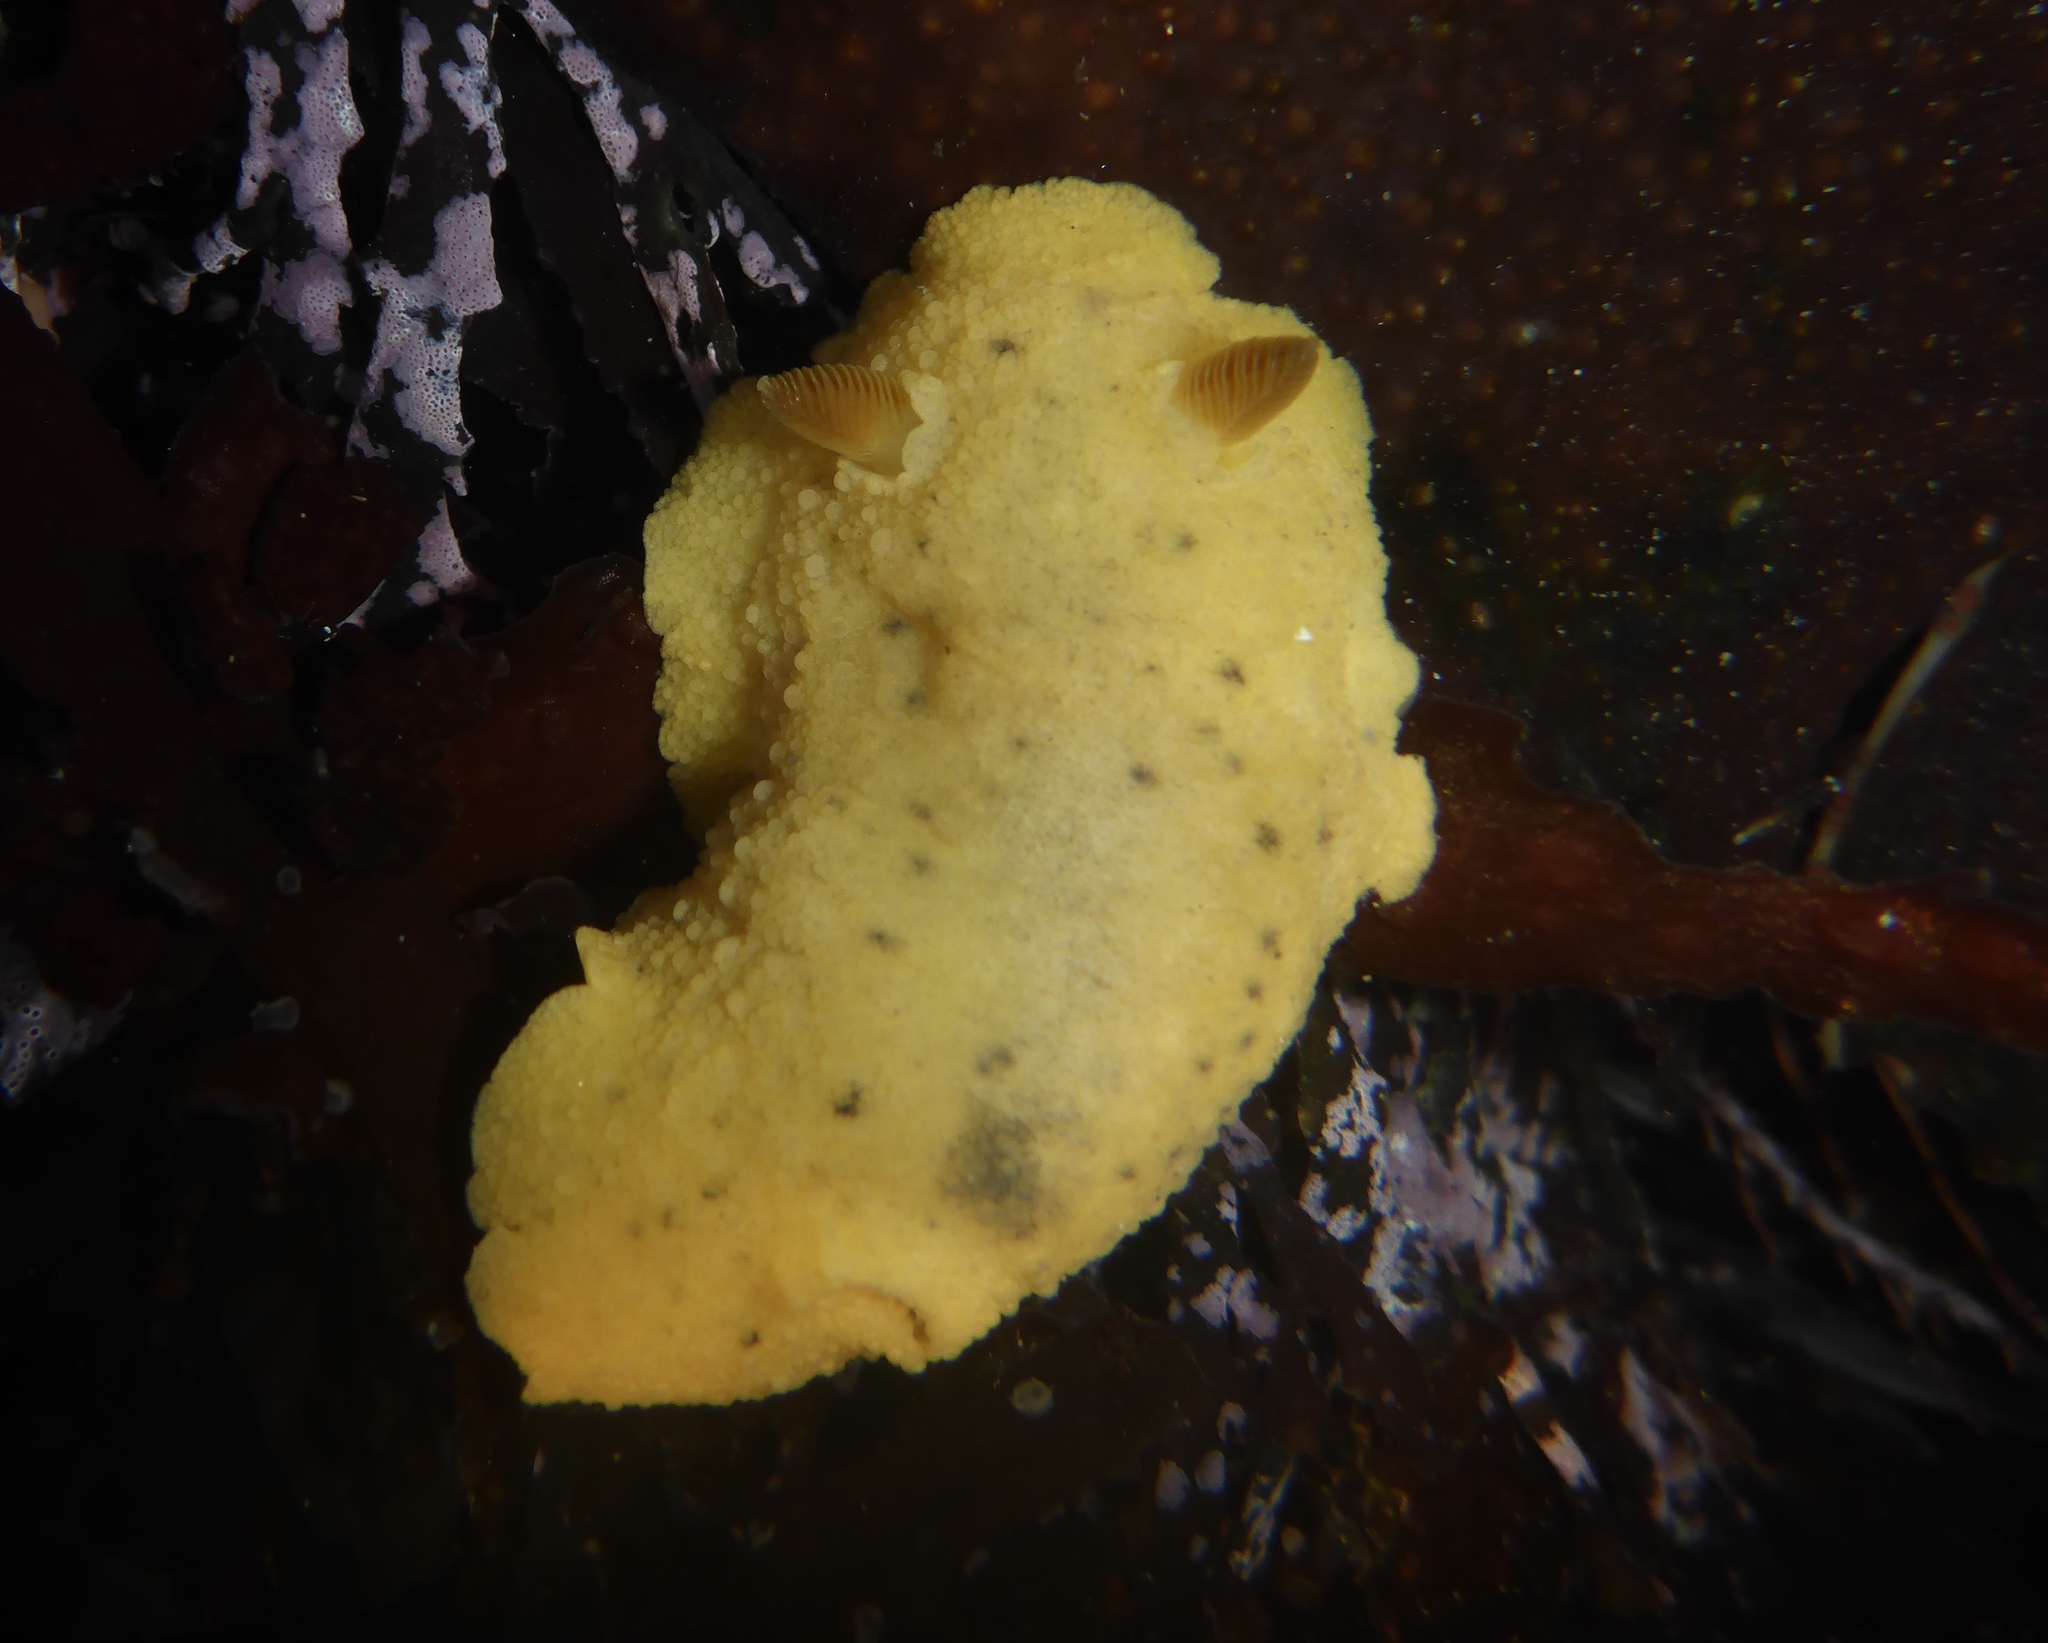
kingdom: Animalia
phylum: Mollusca
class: Gastropoda
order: Nudibranchia
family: Discodorididae
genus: Geitodoris
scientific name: Geitodoris heathi
